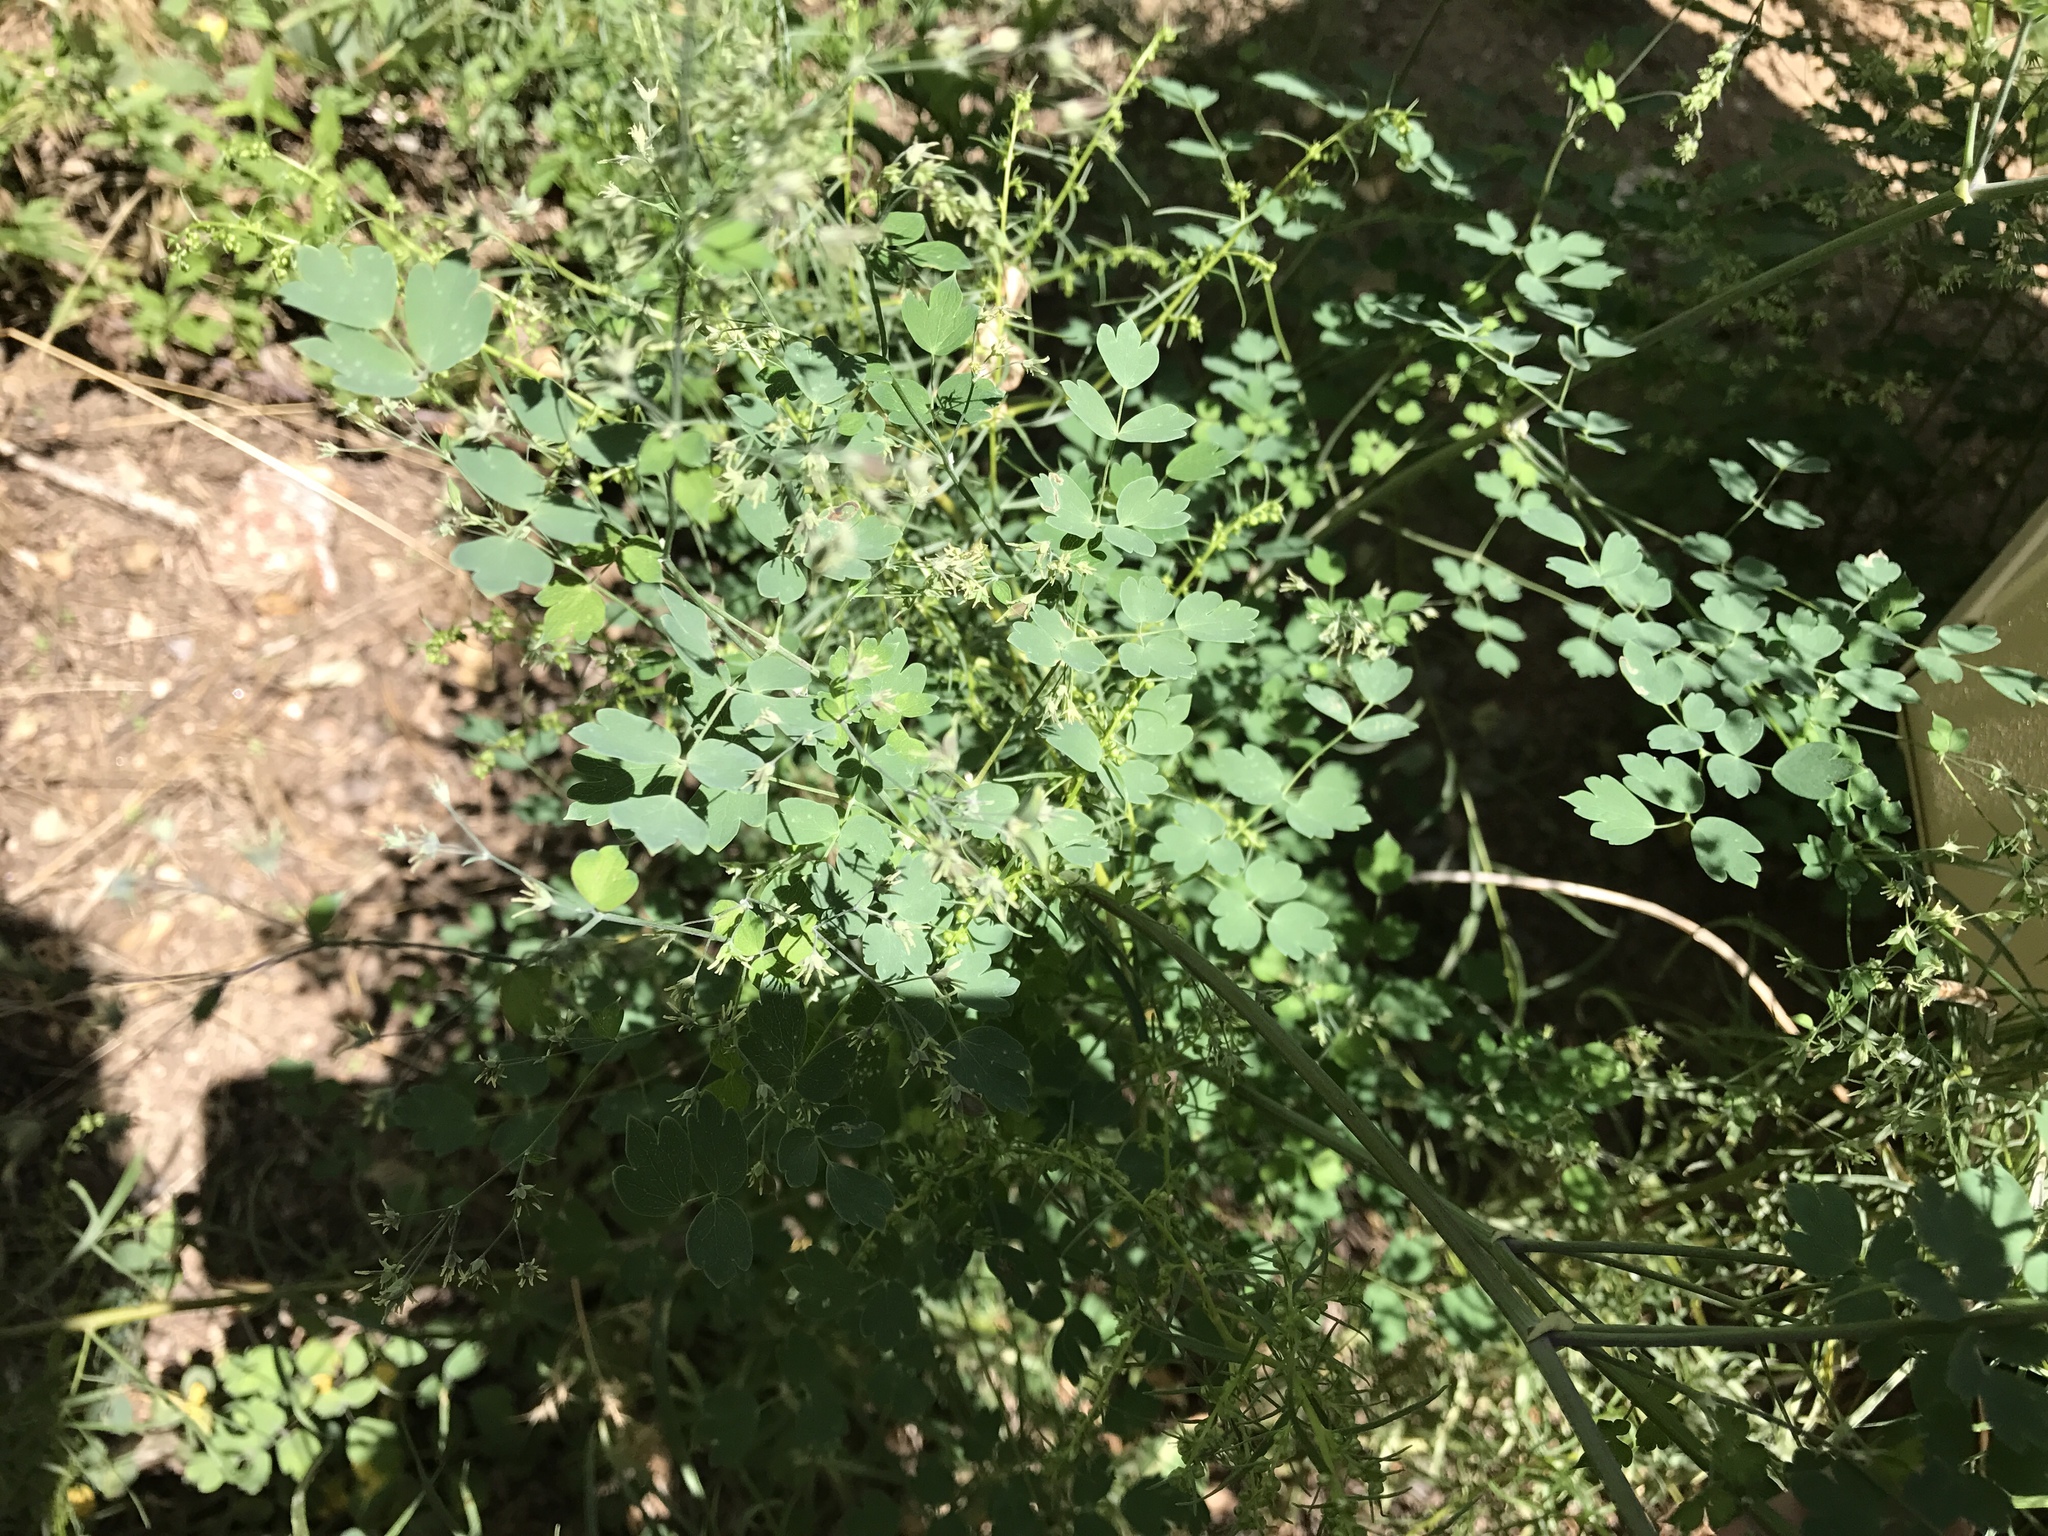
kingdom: Plantae
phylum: Tracheophyta
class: Magnoliopsida
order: Ranunculales
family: Ranunculaceae
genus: Thalictrum
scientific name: Thalictrum fendleri
